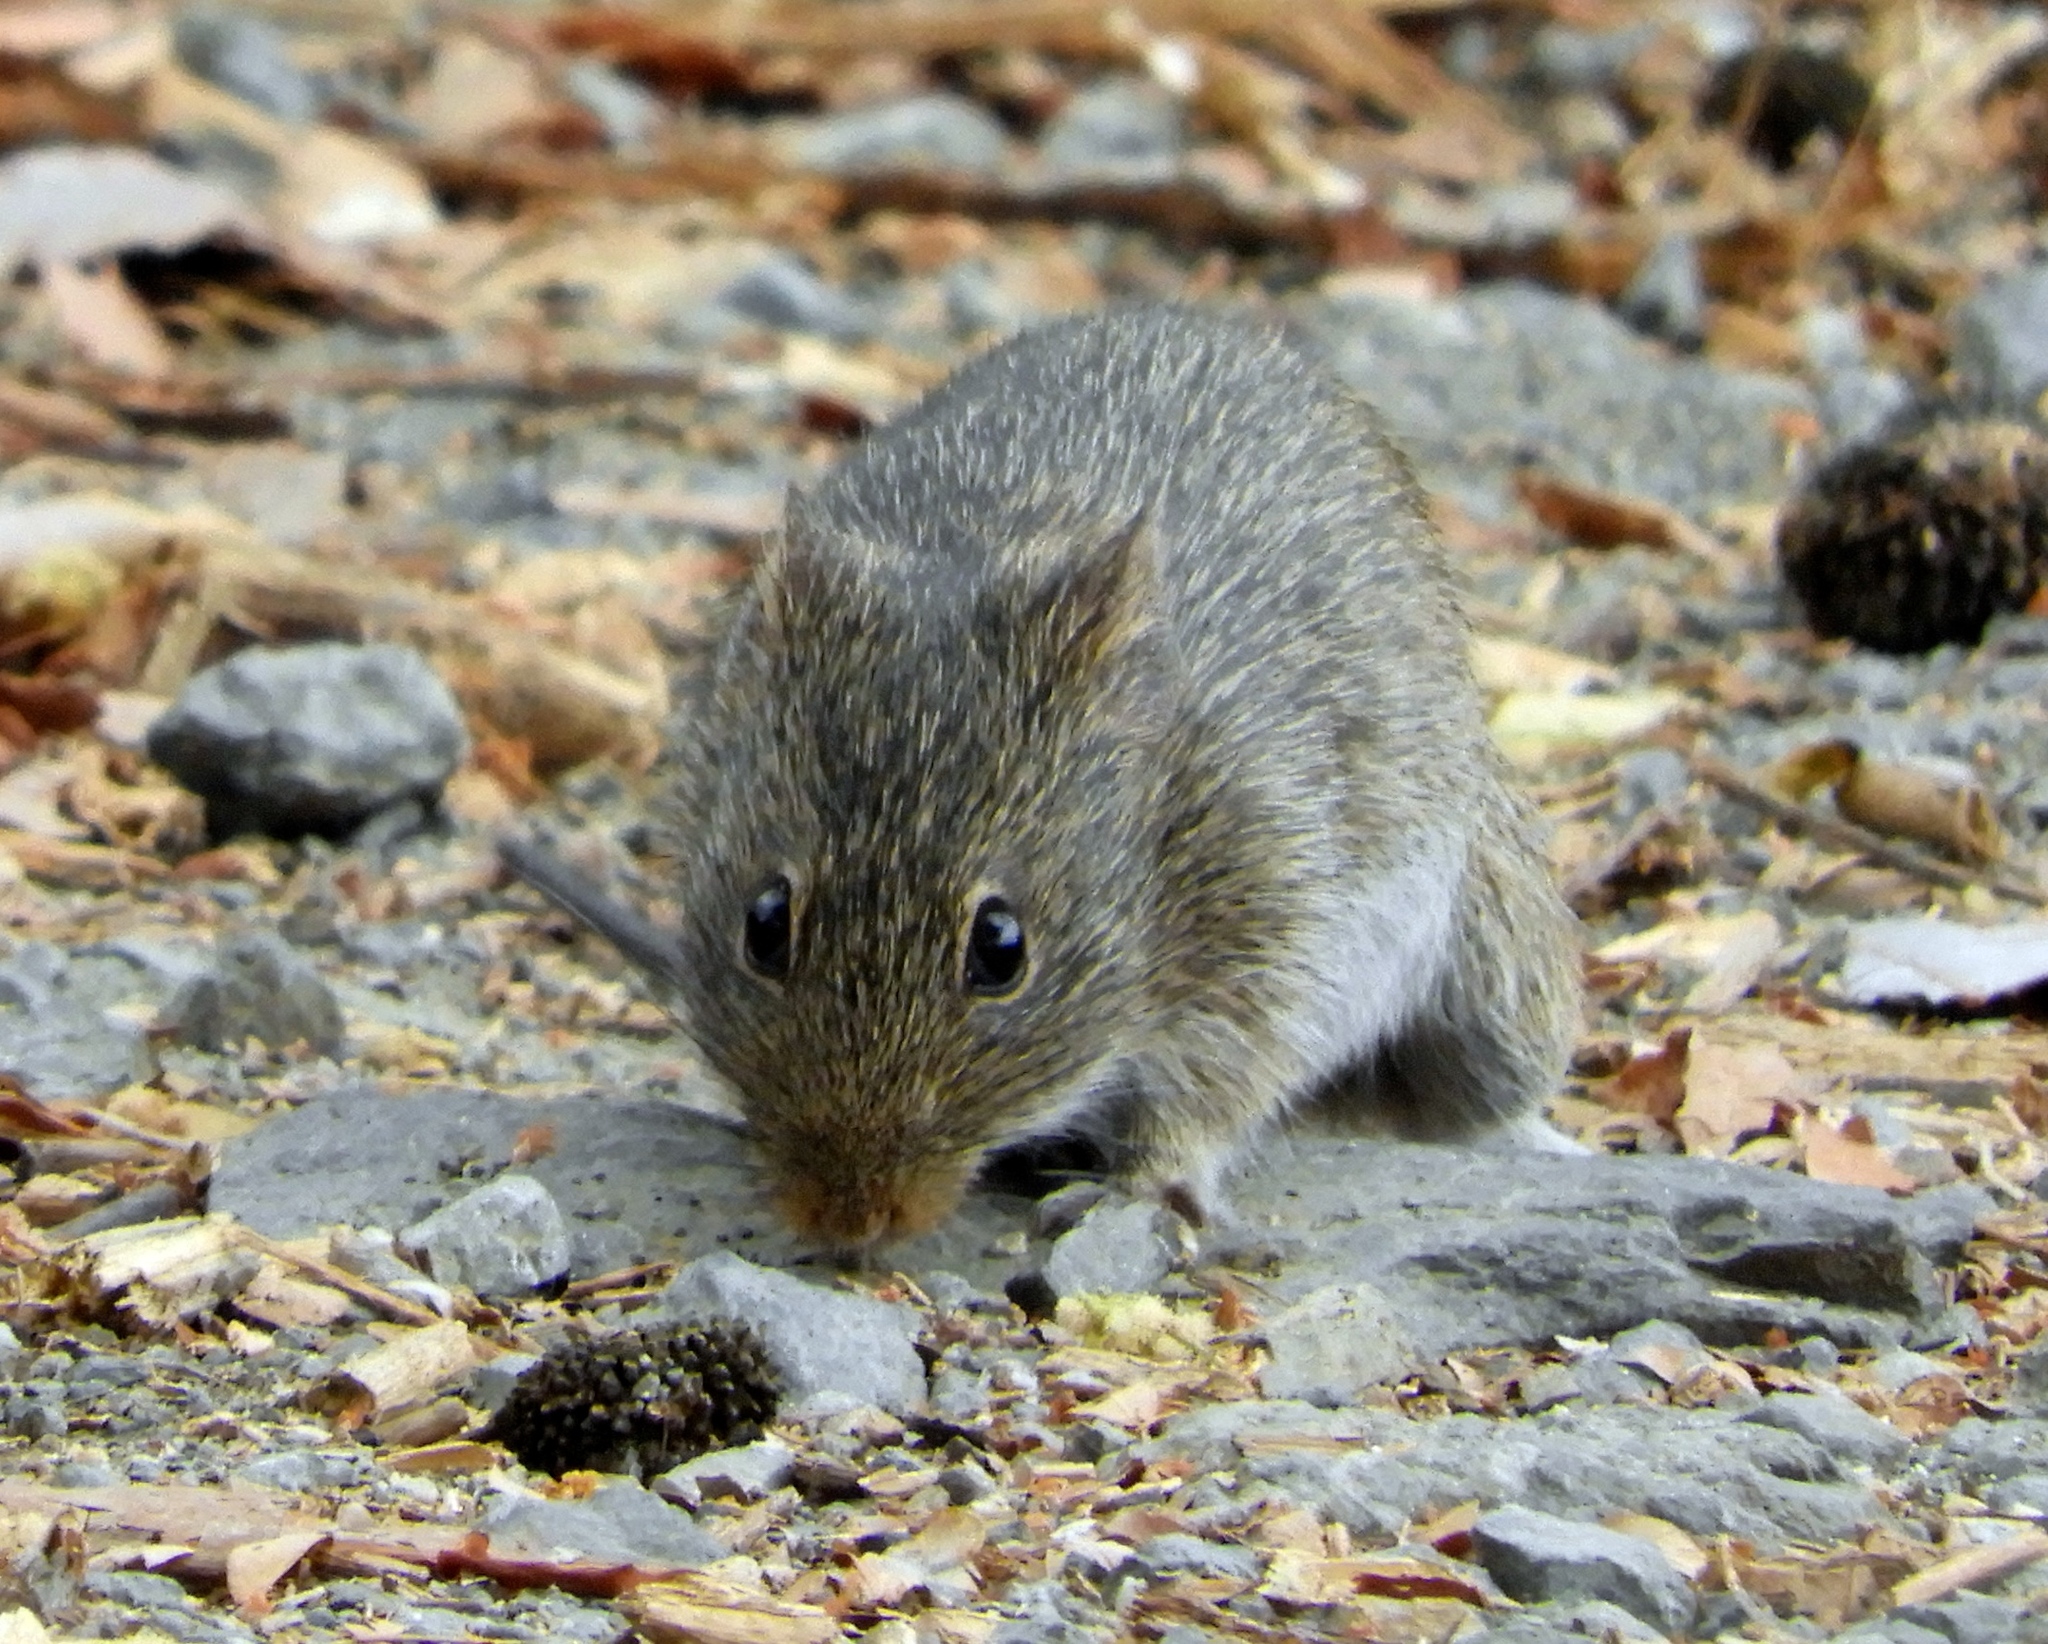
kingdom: Animalia
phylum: Chordata
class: Mammalia
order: Rodentia
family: Cricetidae
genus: Sigmodon
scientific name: Sigmodon arizonae
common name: Arizona cotton rat
